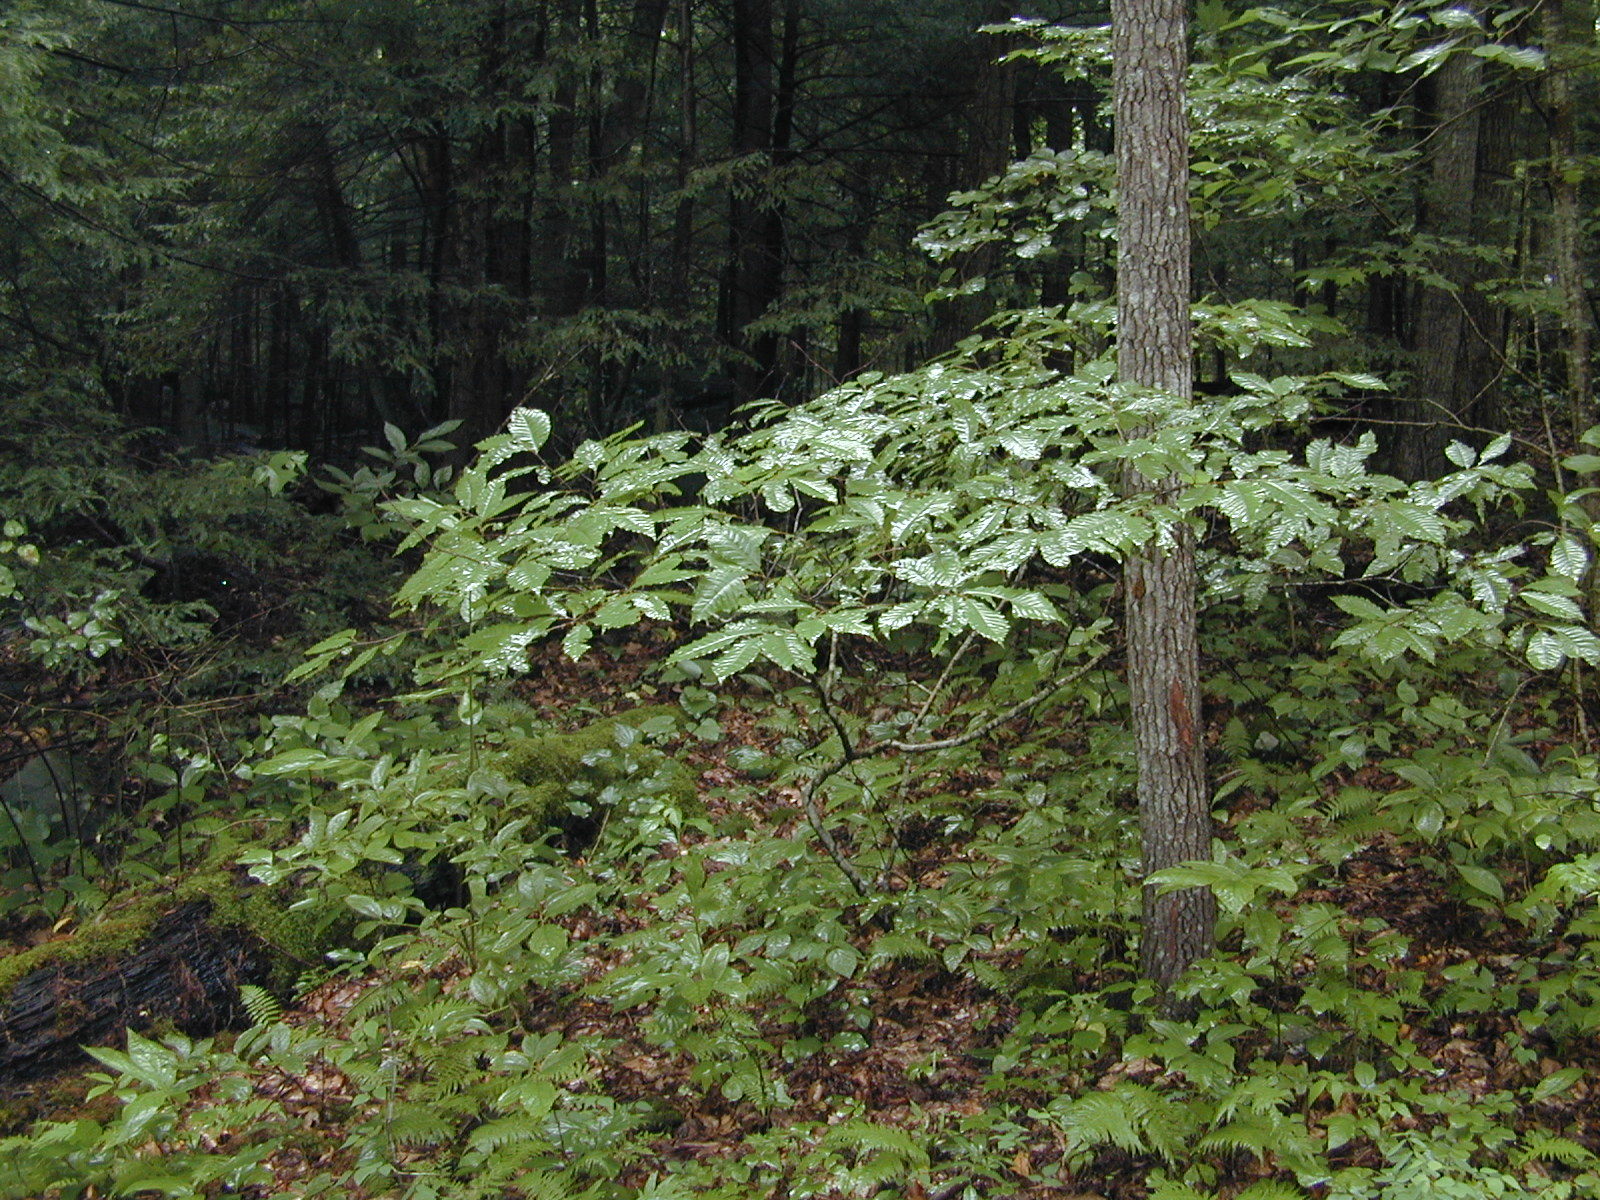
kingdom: Plantae
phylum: Tracheophyta
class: Magnoliopsida
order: Fagales
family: Fagaceae
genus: Castanea
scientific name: Castanea dentata
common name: American chestnut
